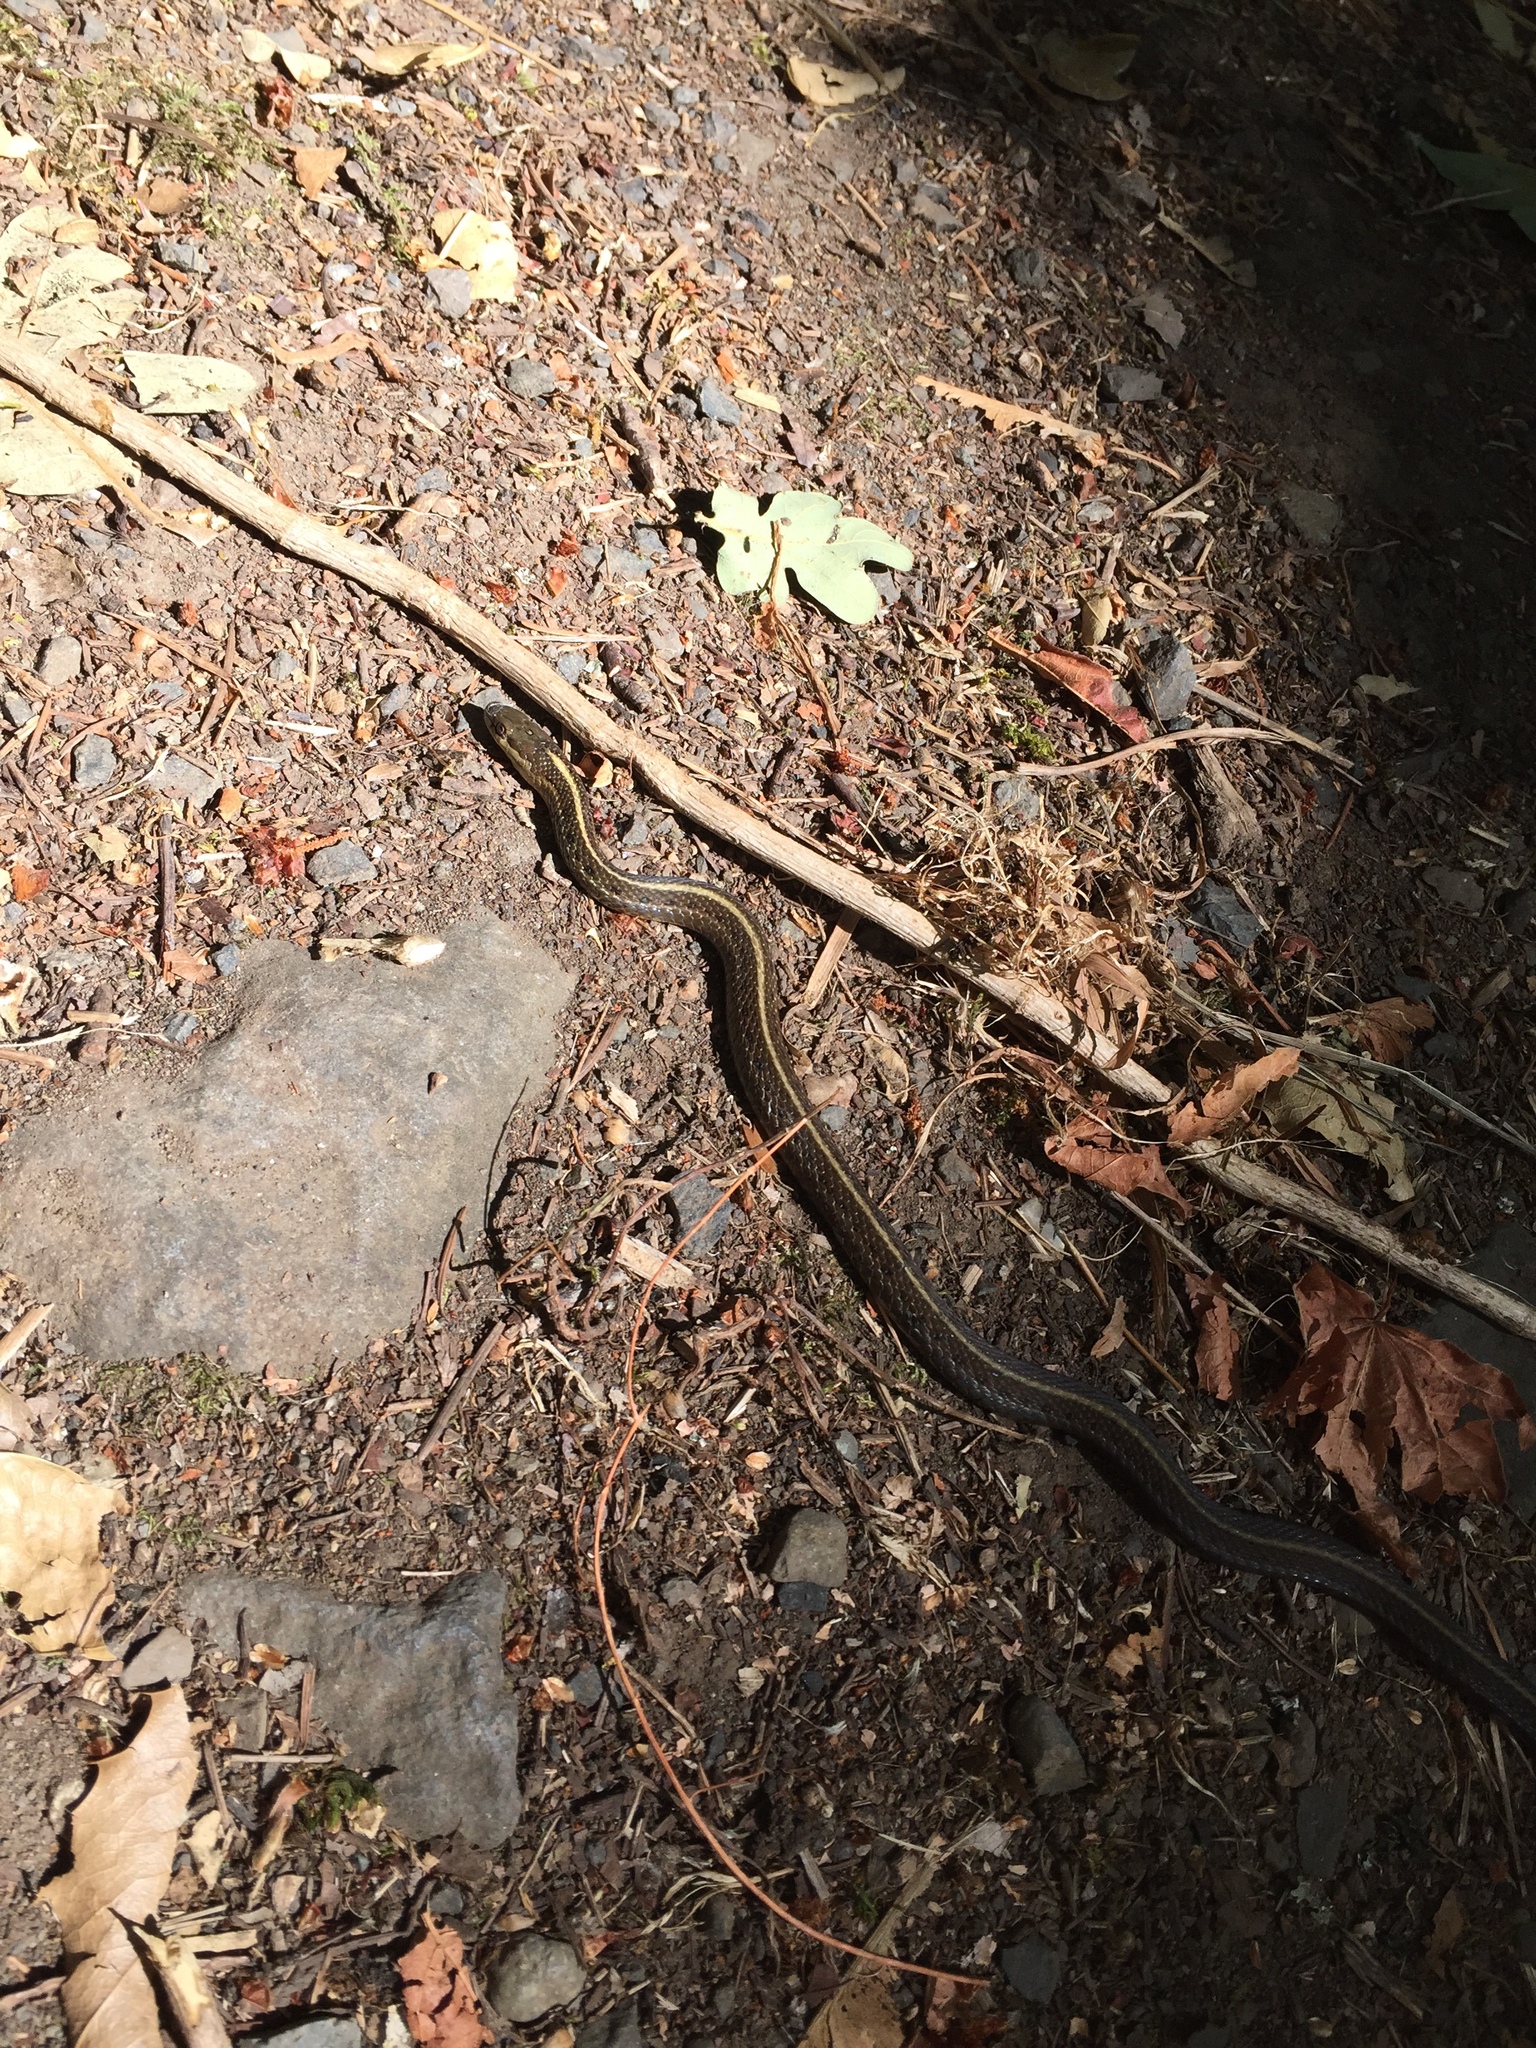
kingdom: Animalia
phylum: Chordata
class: Squamata
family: Colubridae
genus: Thamnophis
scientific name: Thamnophis ordinoides
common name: Northwestern garter snake
